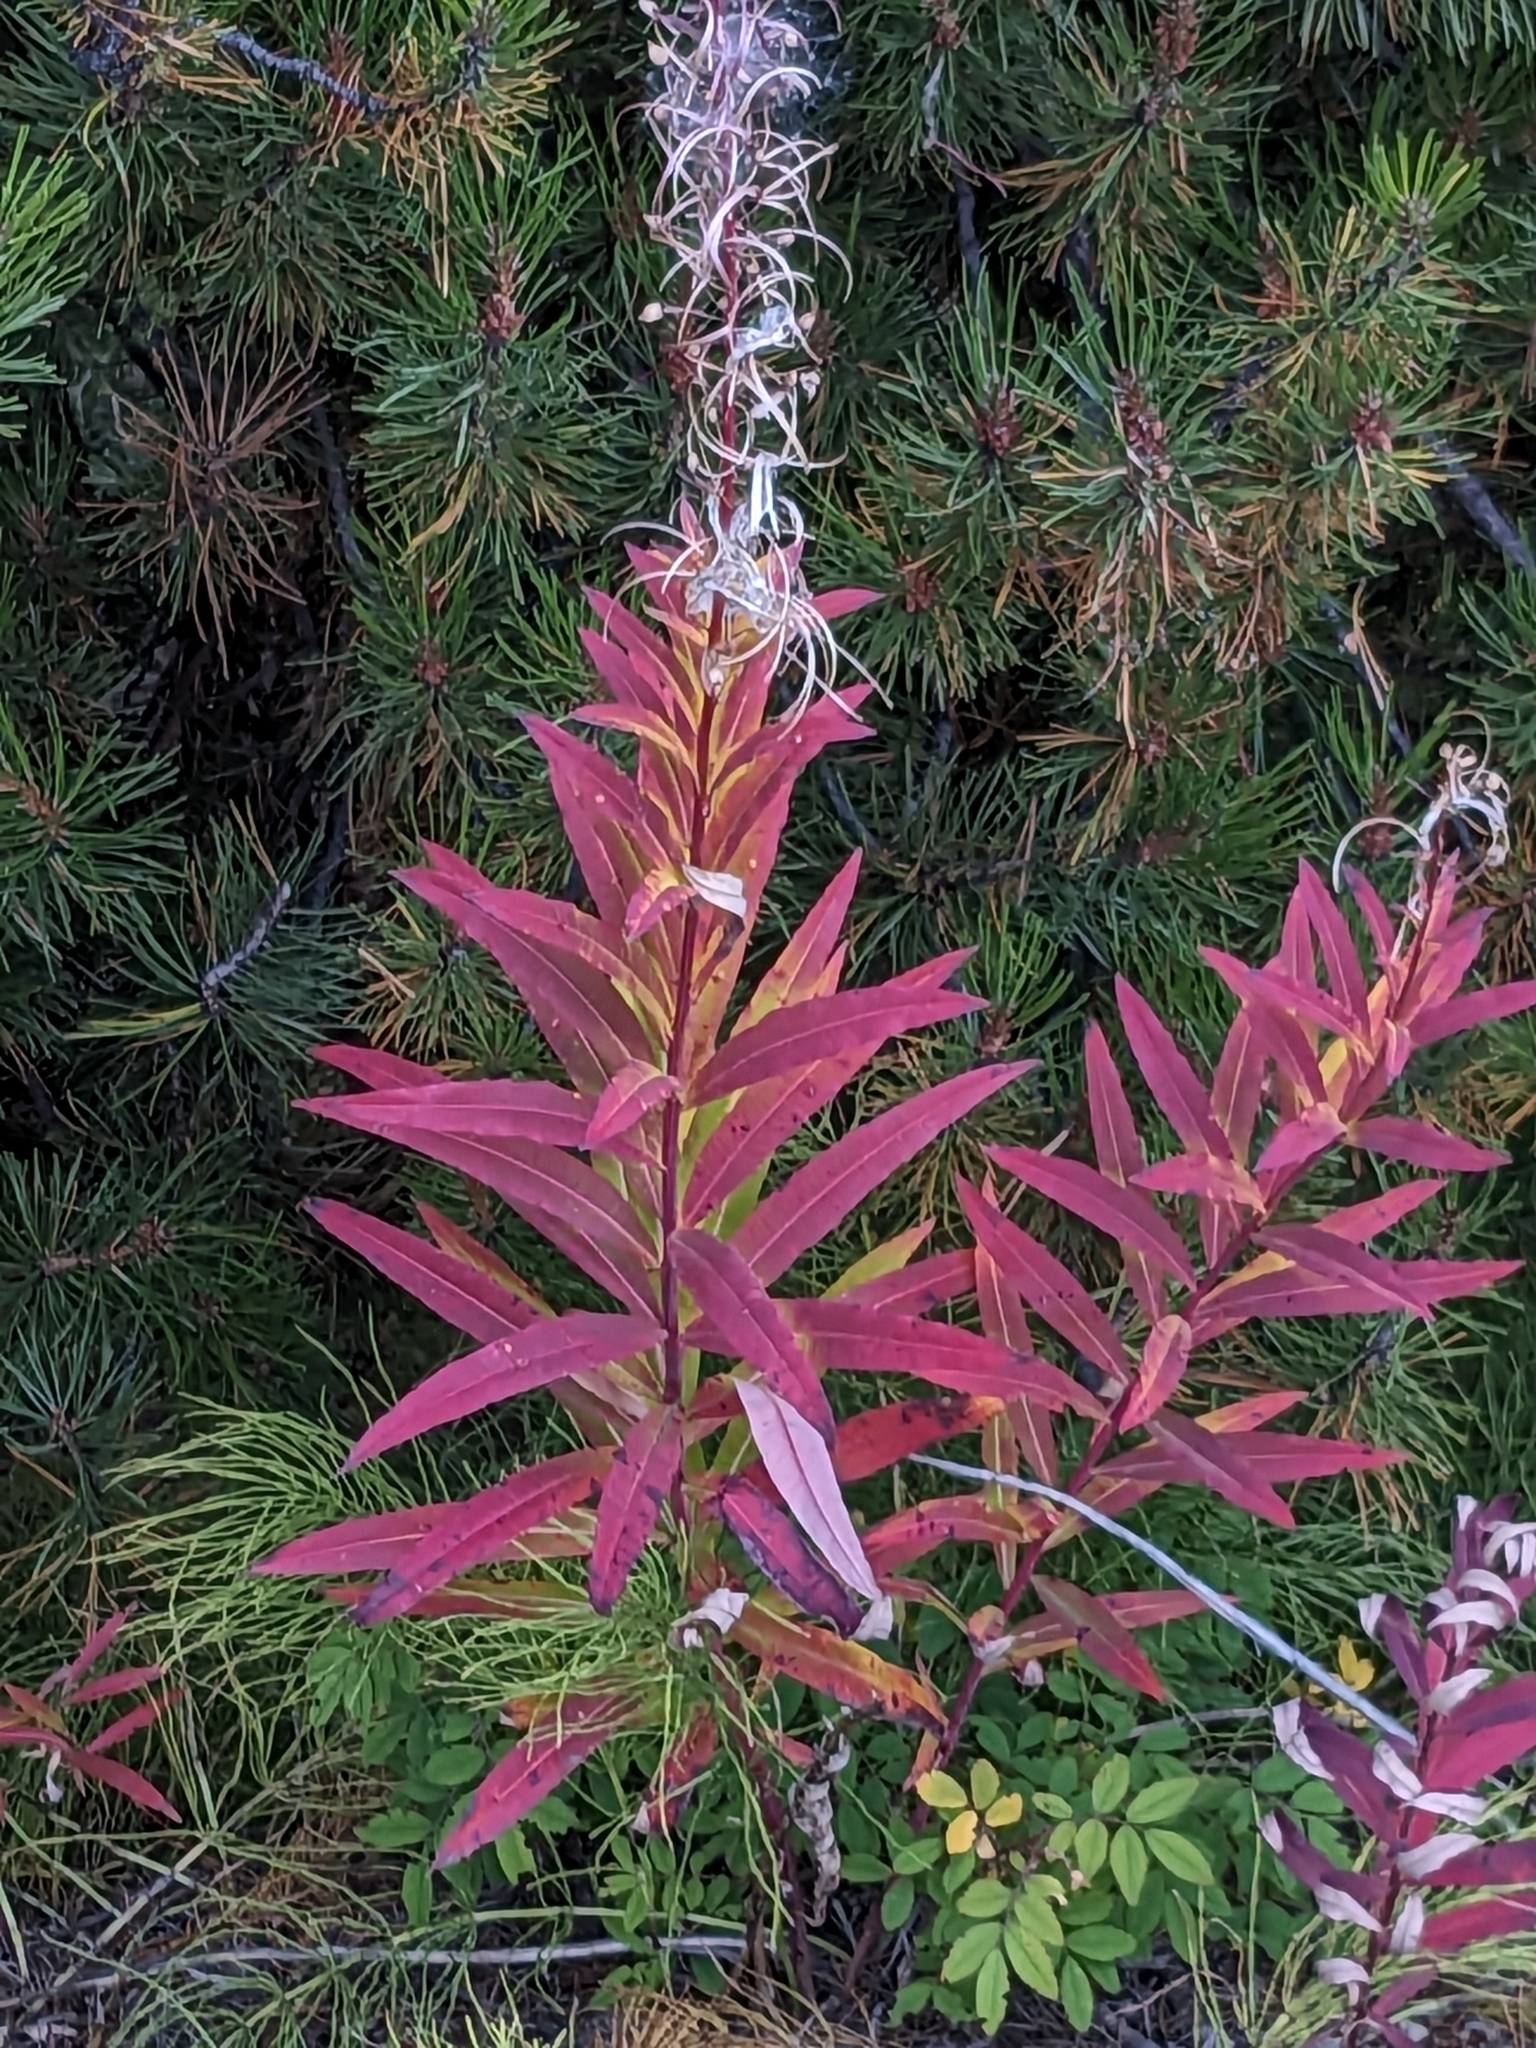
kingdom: Plantae
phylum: Tracheophyta
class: Magnoliopsida
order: Myrtales
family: Onagraceae
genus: Chamaenerion
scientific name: Chamaenerion angustifolium
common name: Fireweed
